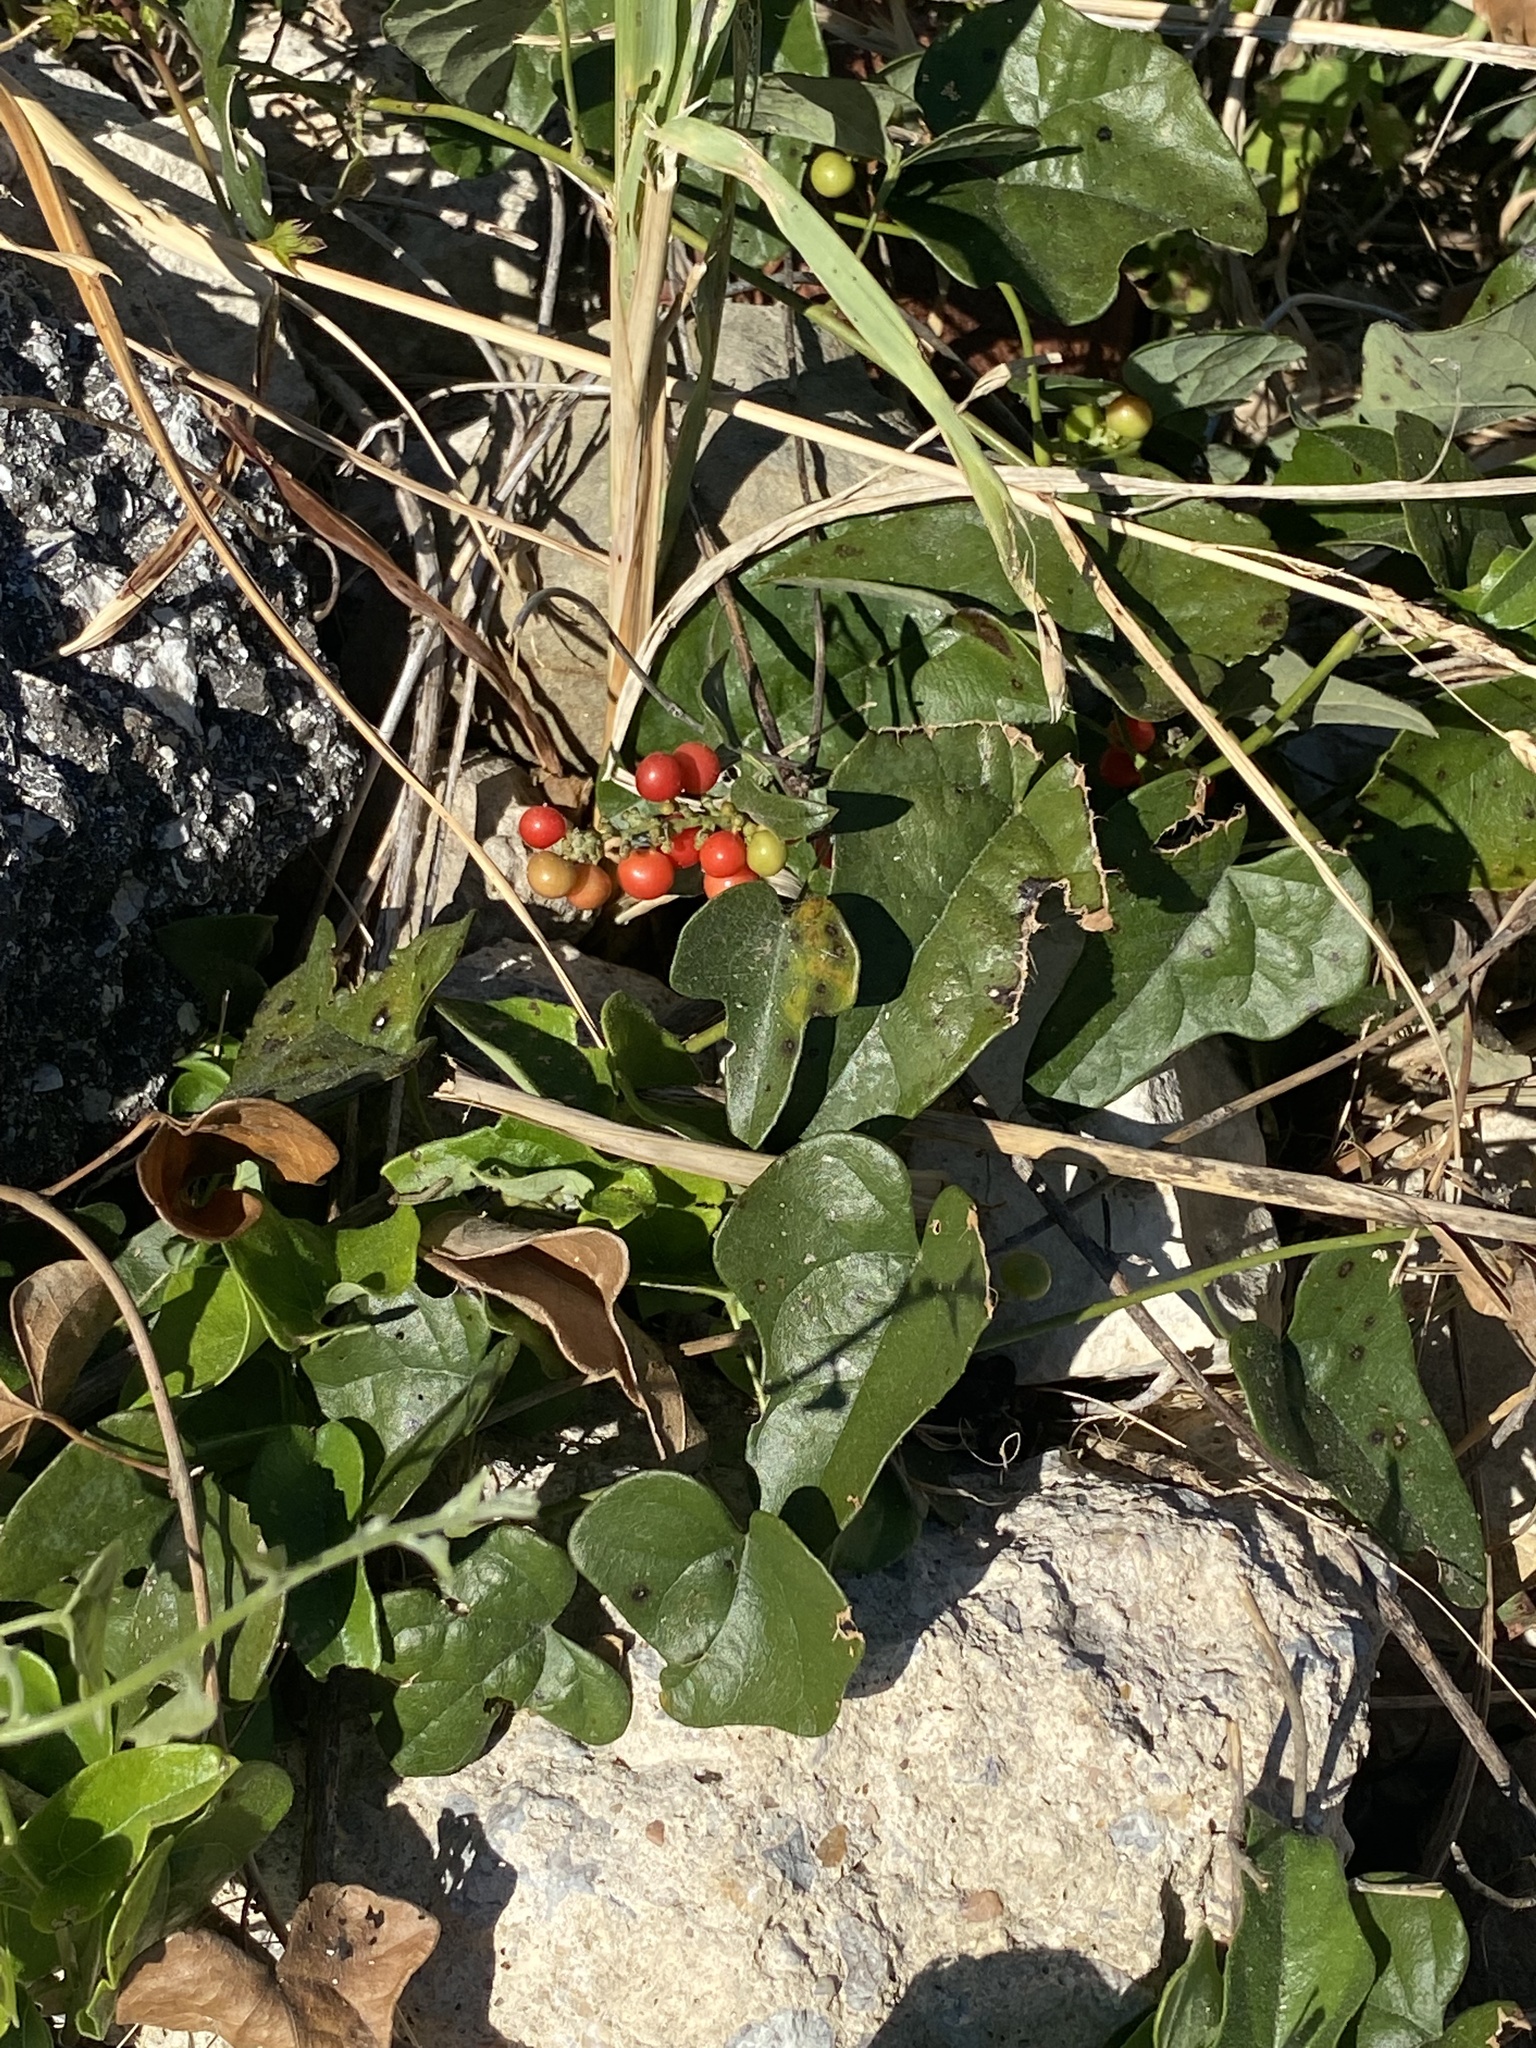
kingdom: Plantae
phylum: Tracheophyta
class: Magnoliopsida
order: Ranunculales
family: Menispermaceae
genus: Cocculus
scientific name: Cocculus carolinus
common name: Carolina moonseed
